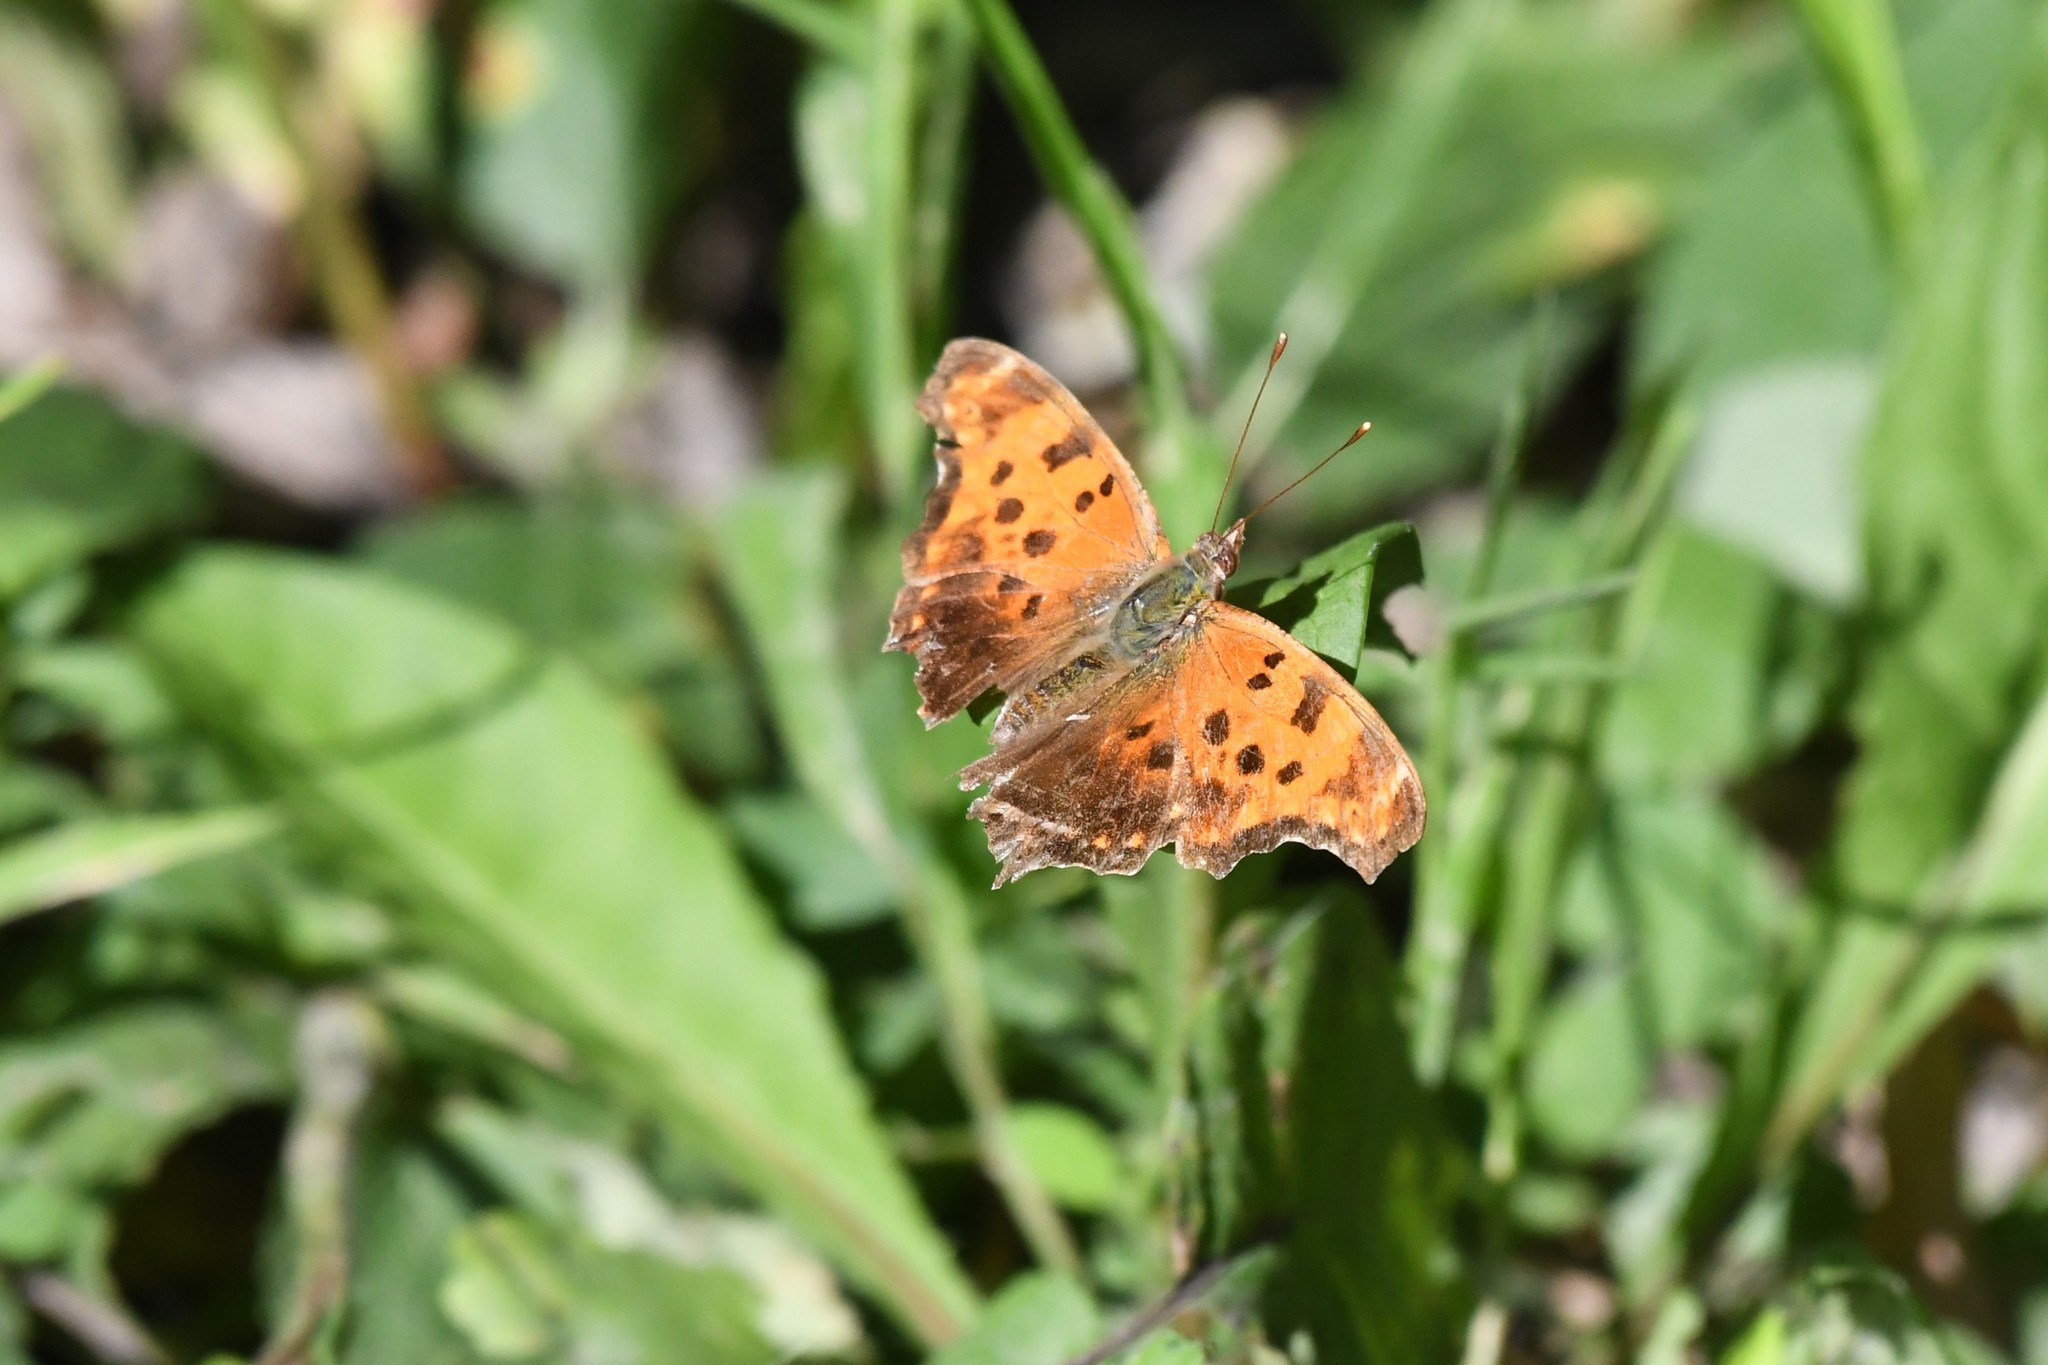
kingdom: Animalia
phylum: Arthropoda
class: Insecta
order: Lepidoptera
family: Nymphalidae
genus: Polygonia
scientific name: Polygonia comma
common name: Eastern comma
